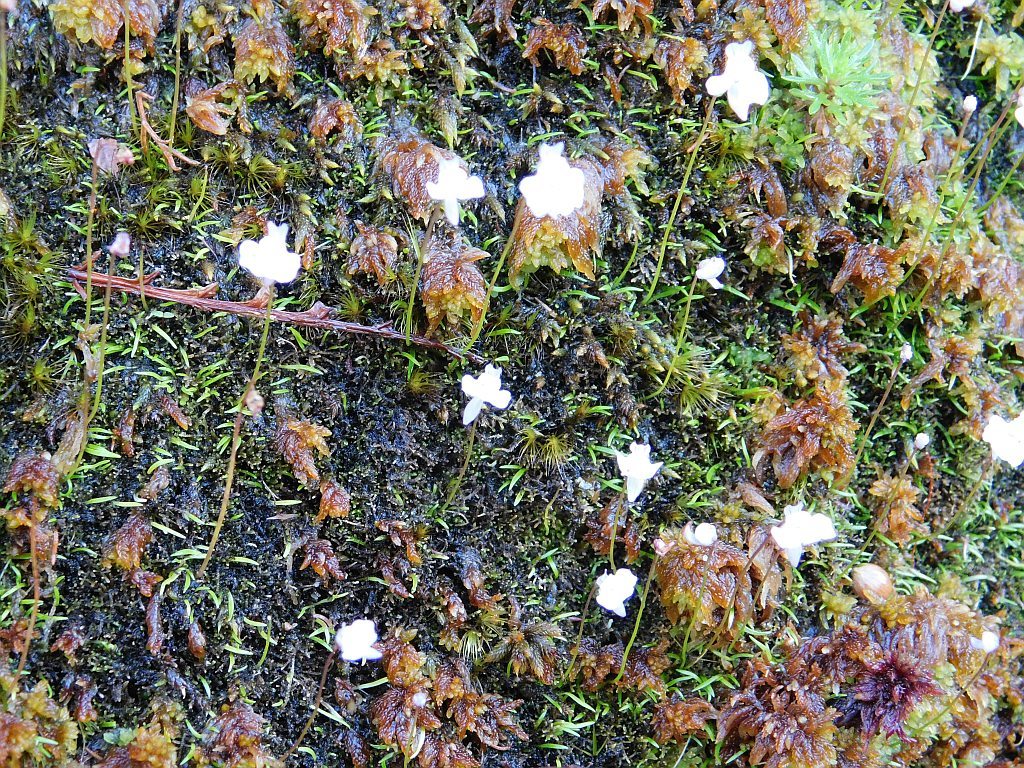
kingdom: Plantae
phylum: Tracheophyta
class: Magnoliopsida
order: Lamiales
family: Lentibulariaceae
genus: Utricularia
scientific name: Utricularia bisquamata
